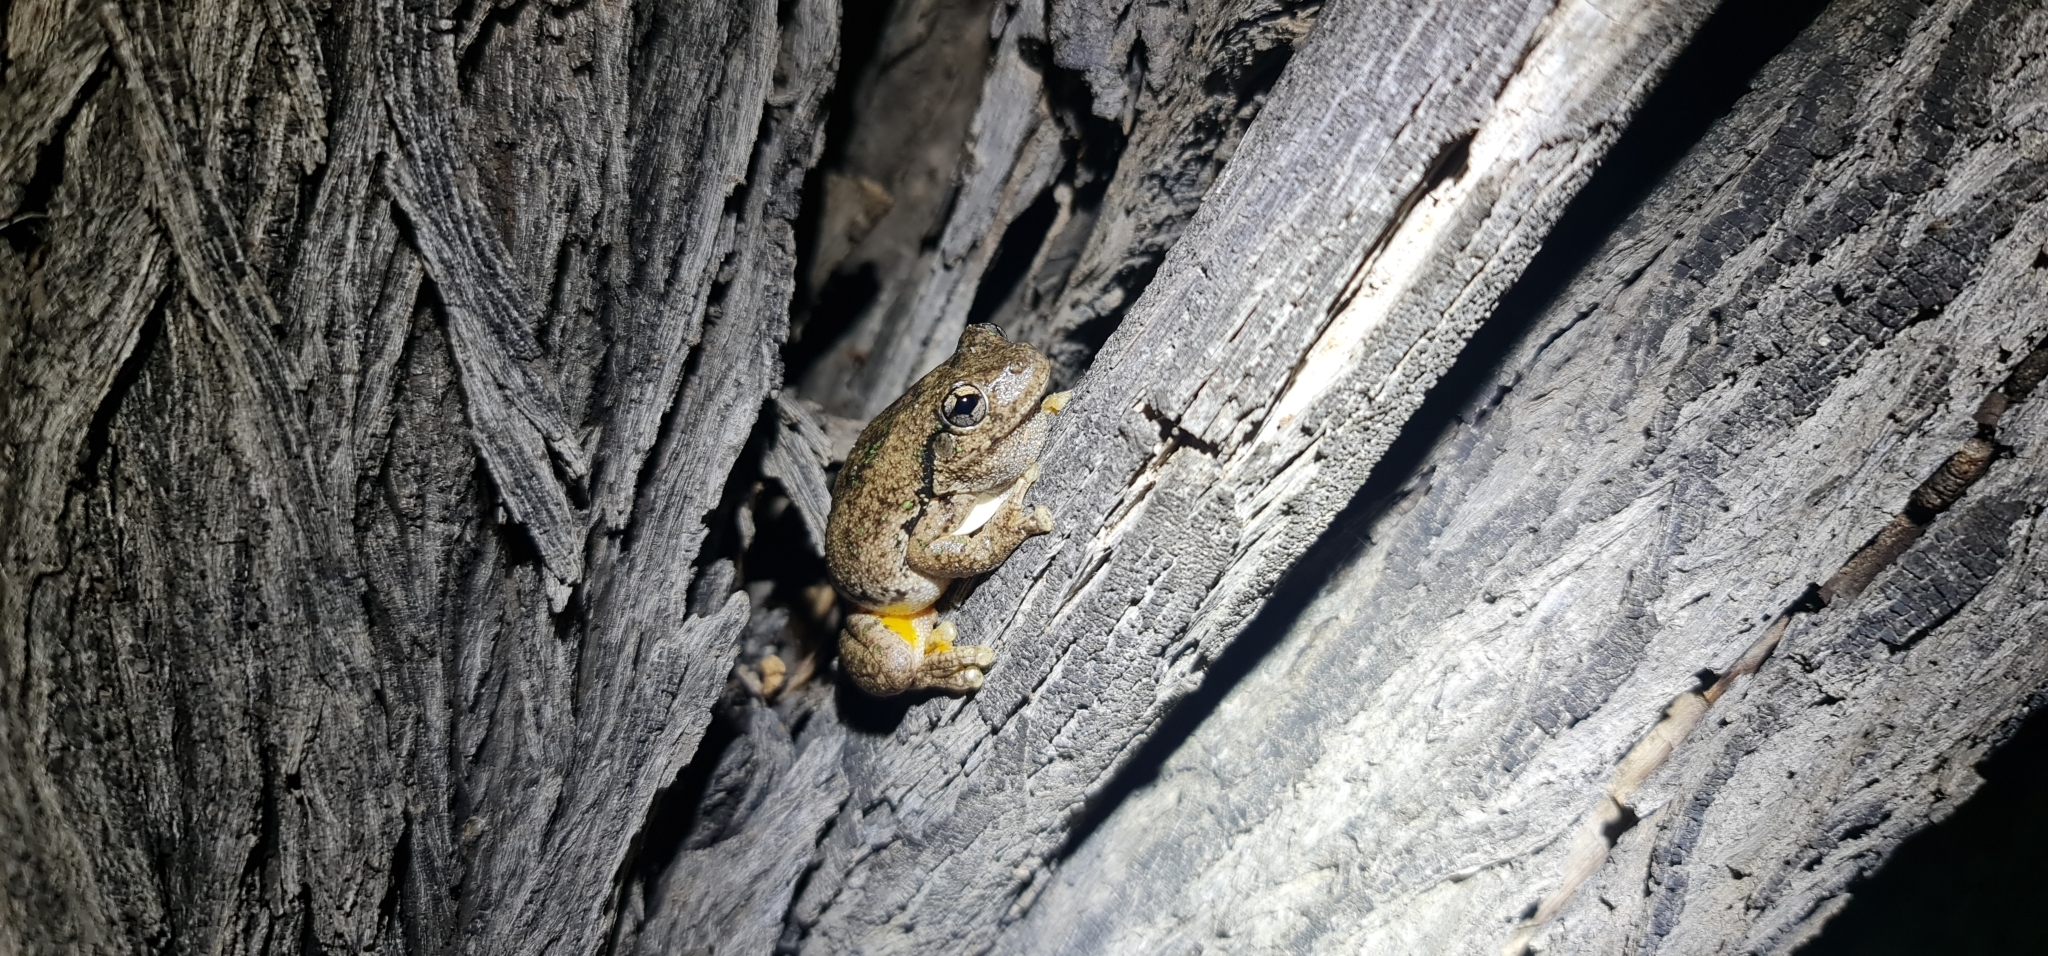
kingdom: Animalia
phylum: Chordata
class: Amphibia
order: Anura
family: Pelodryadidae
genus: Litoria
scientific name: Litoria peronii
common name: Emerald spotted treefrog
